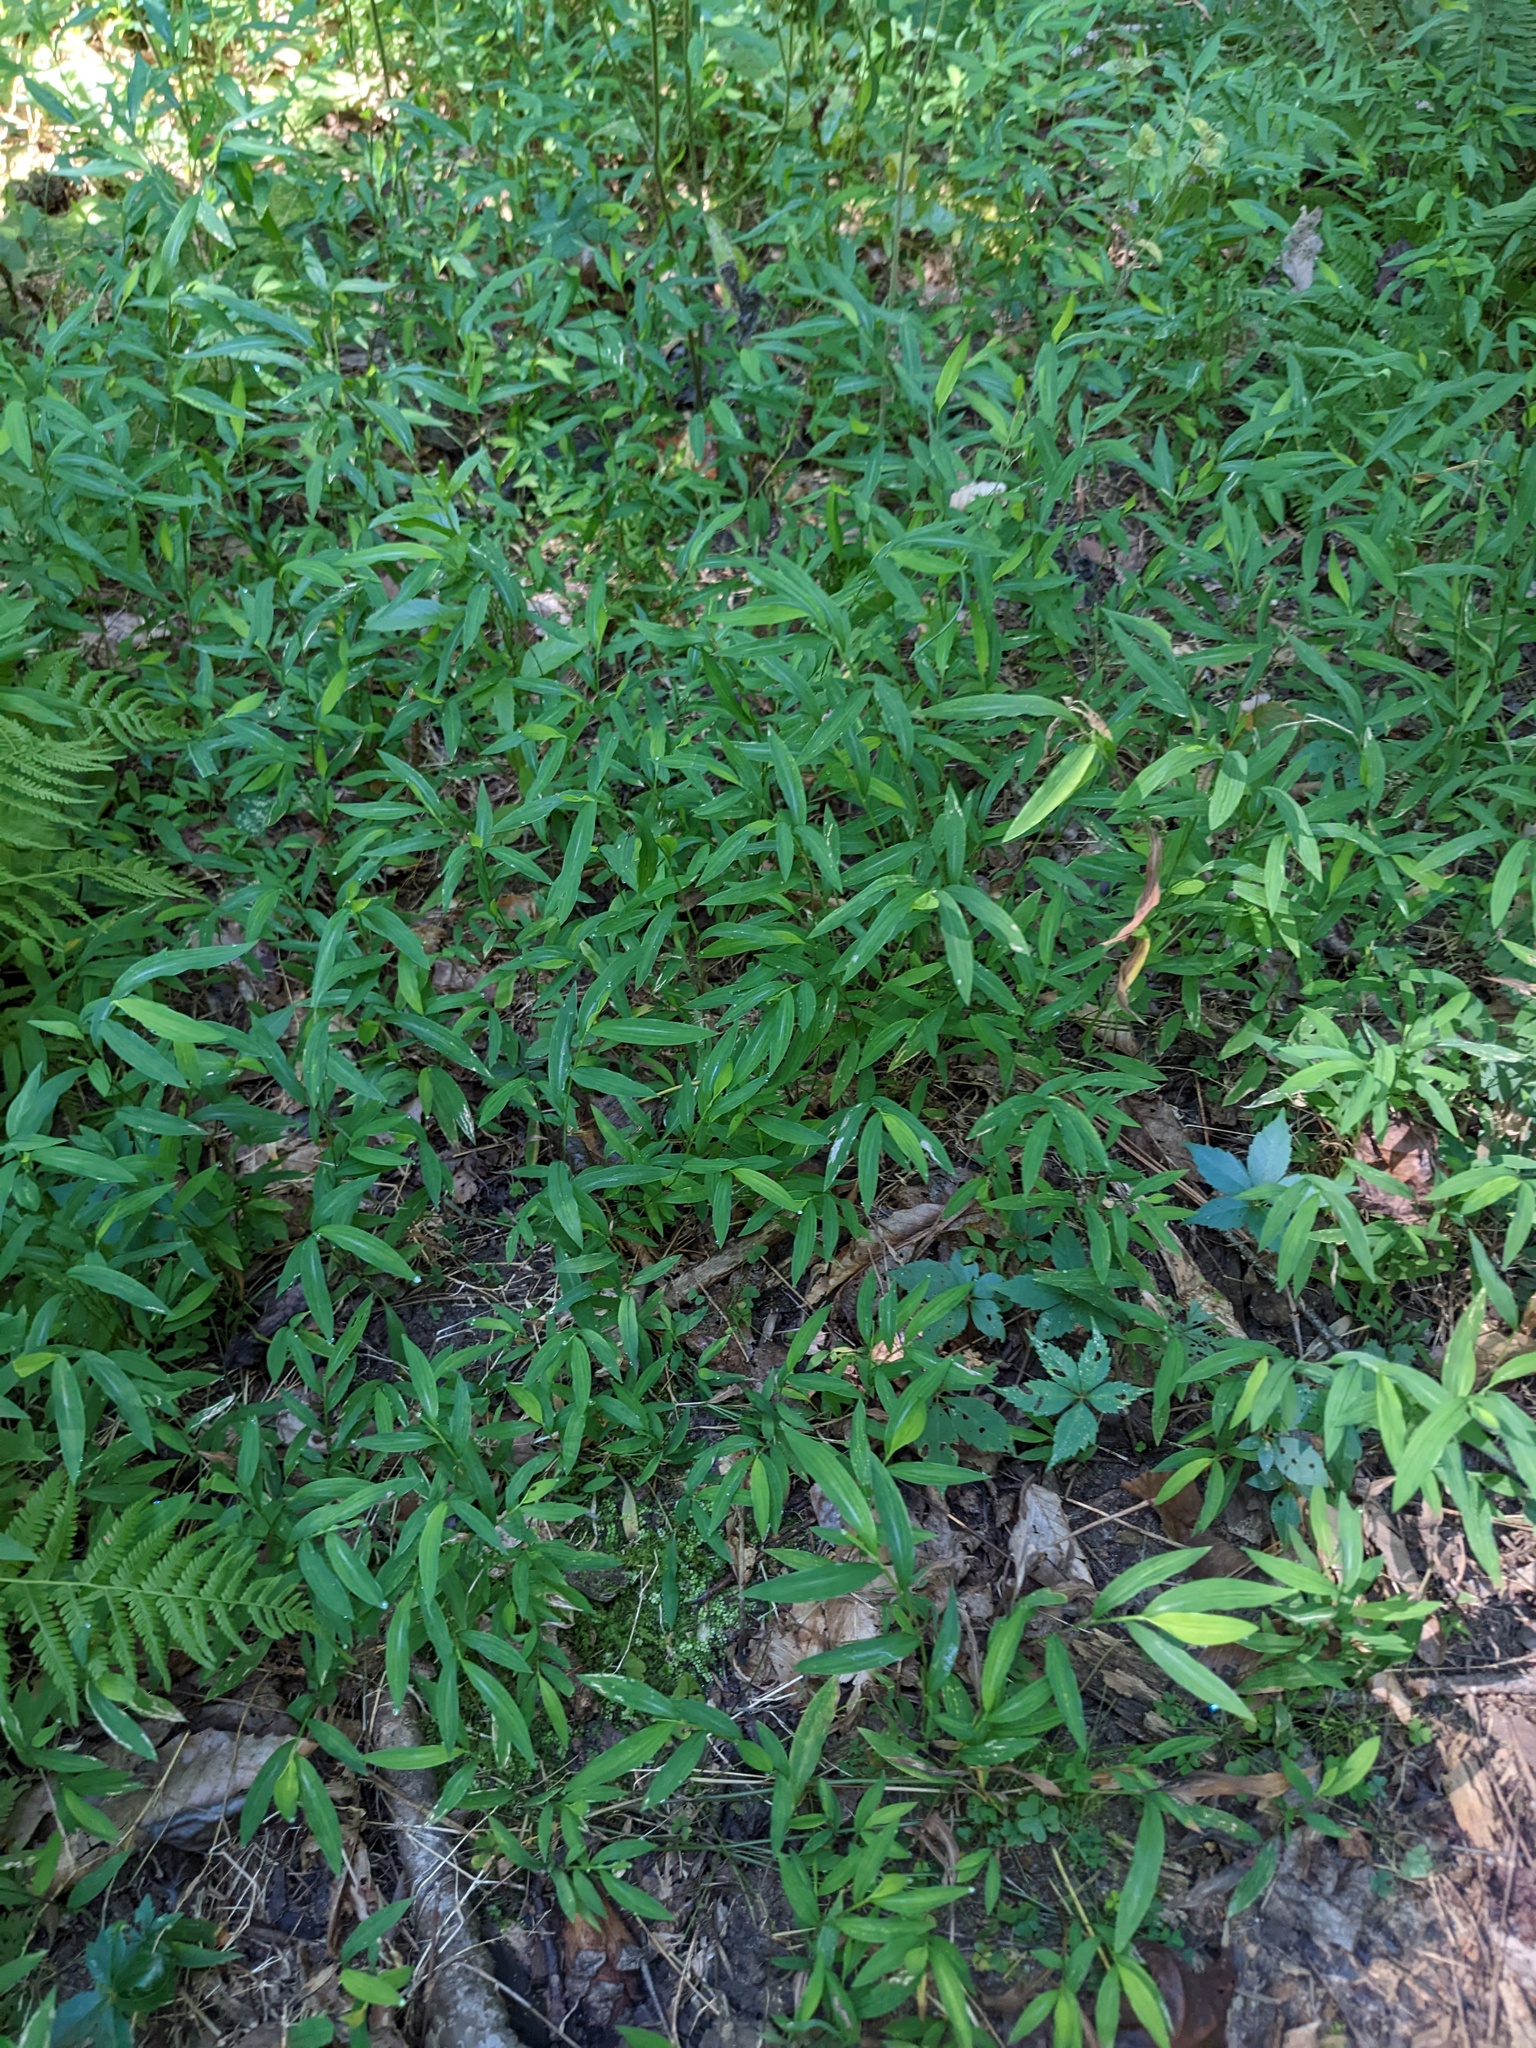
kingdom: Plantae
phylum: Tracheophyta
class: Liliopsida
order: Poales
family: Poaceae
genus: Microstegium
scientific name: Microstegium vimineum
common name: Japanese stiltgrass
